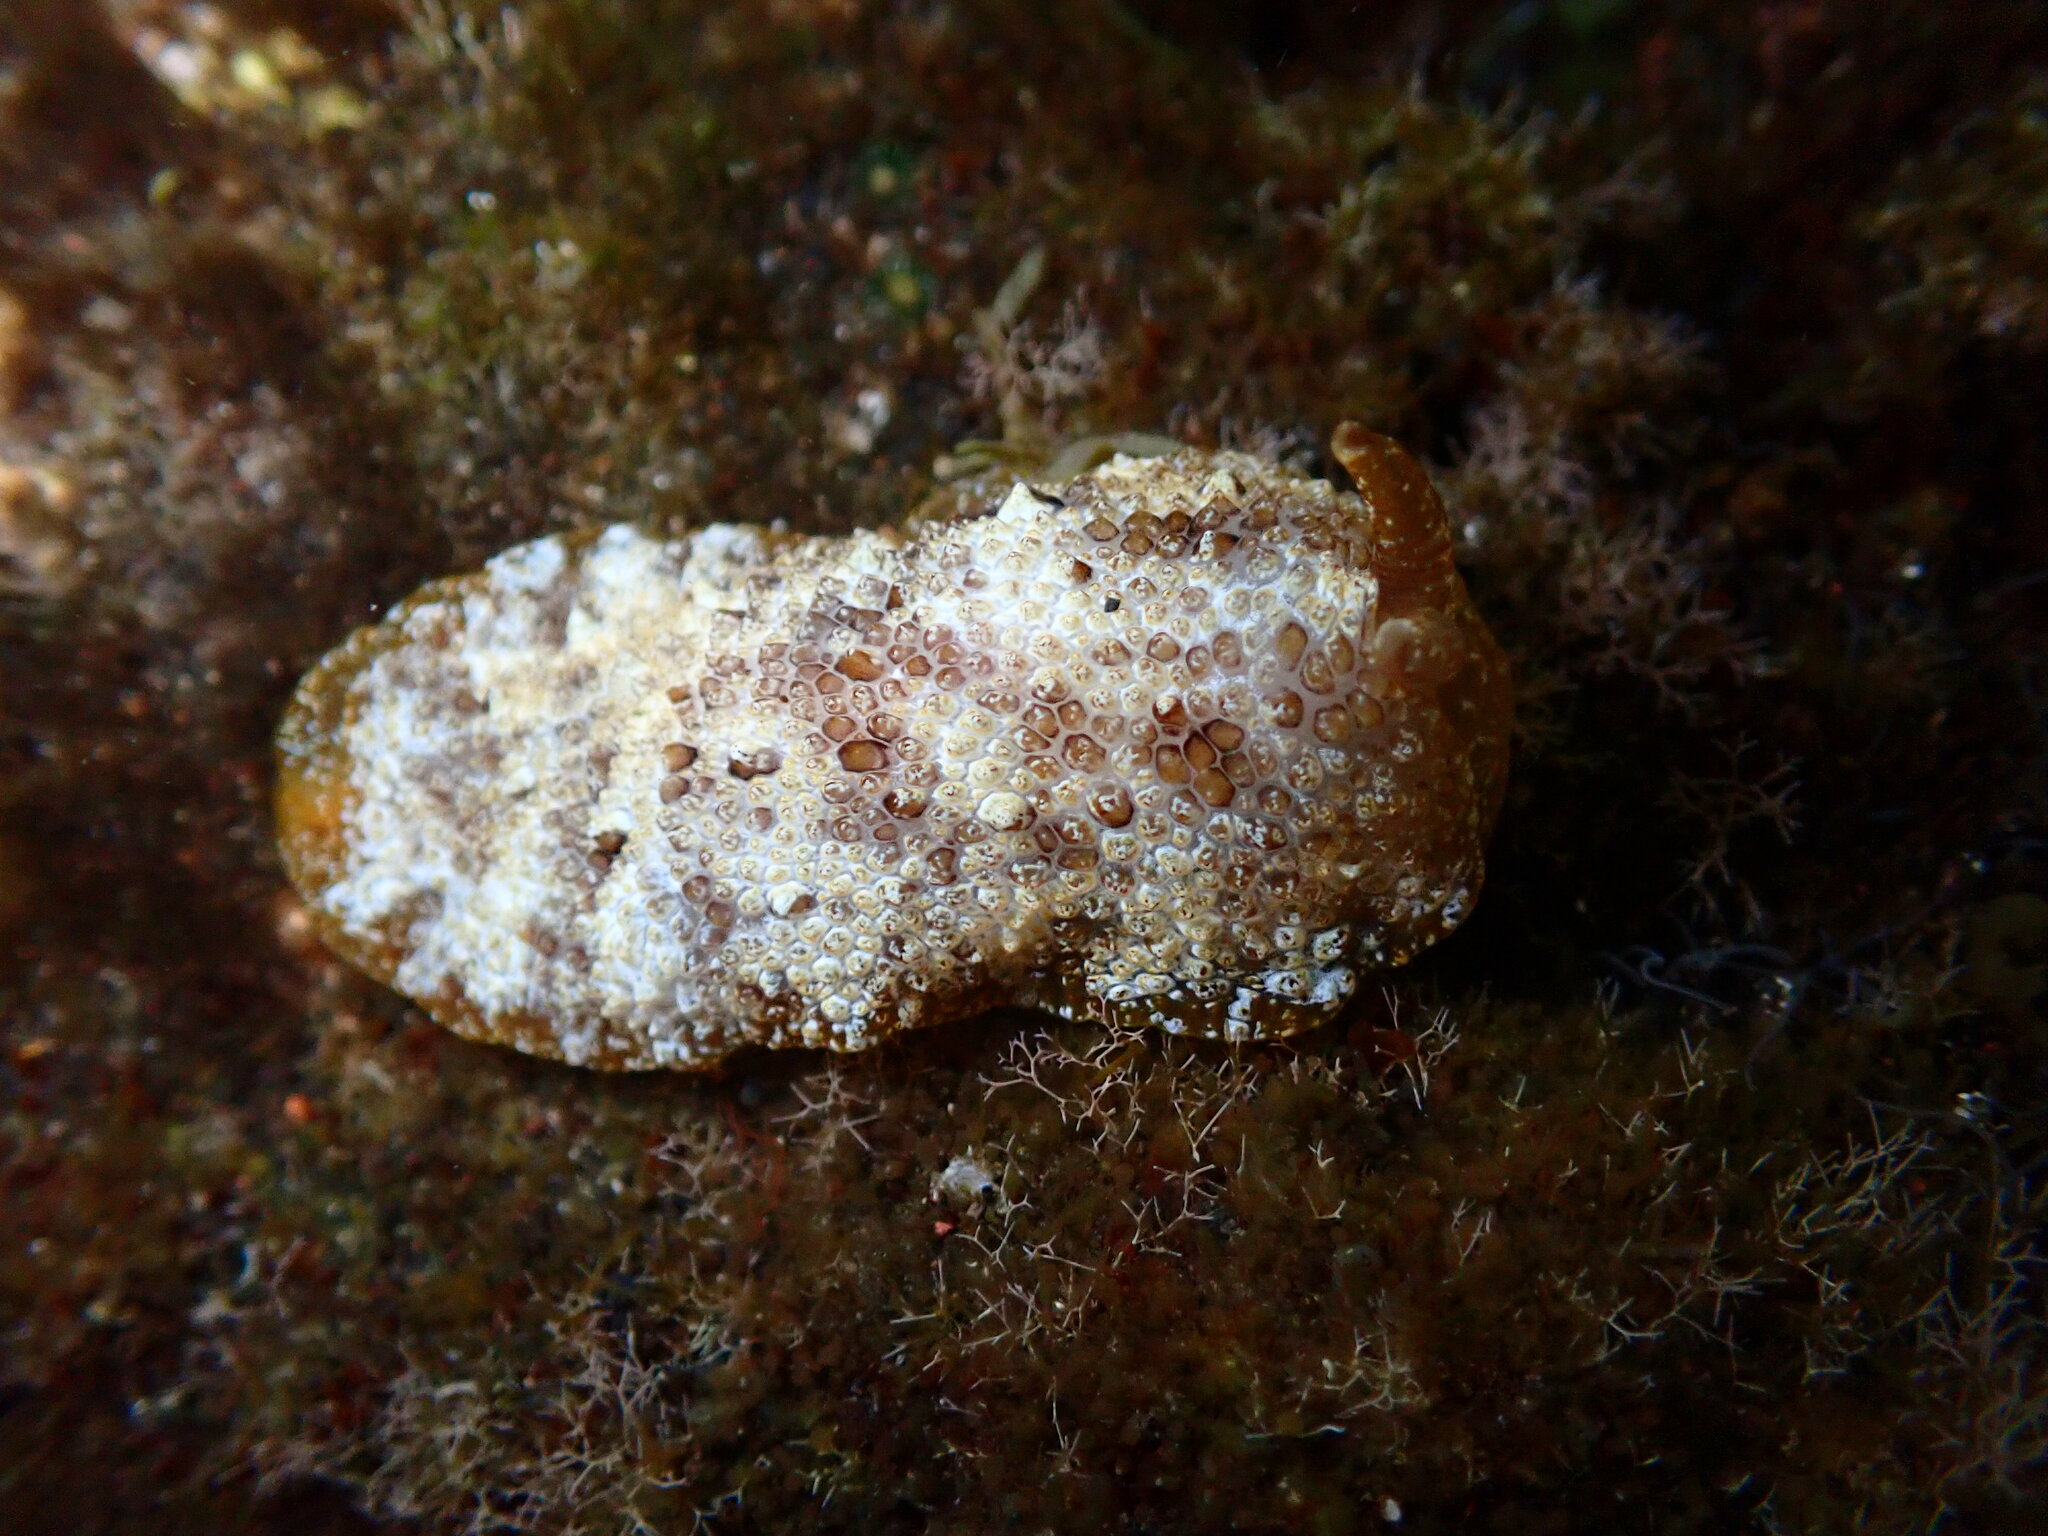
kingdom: Animalia
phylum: Mollusca
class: Gastropoda
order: Pleurobranchida
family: Pleurobranchidae
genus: Pleurobranchus
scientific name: Pleurobranchus crossei
